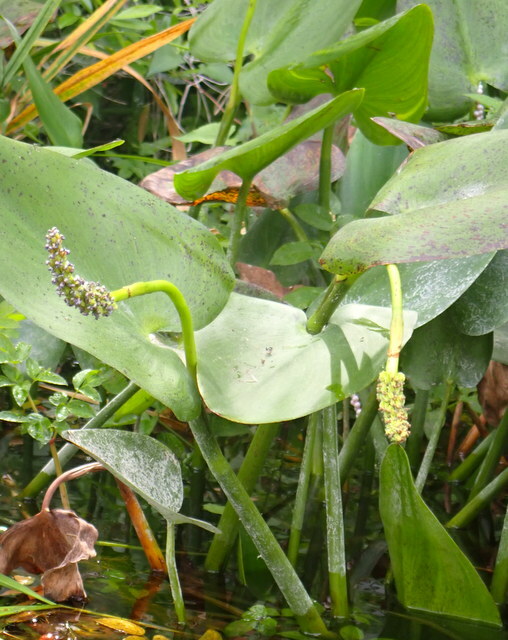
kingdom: Plantae
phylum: Tracheophyta
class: Liliopsida
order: Commelinales
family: Pontederiaceae
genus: Pontederia
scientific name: Pontederia cordata
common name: Pickerelweed
